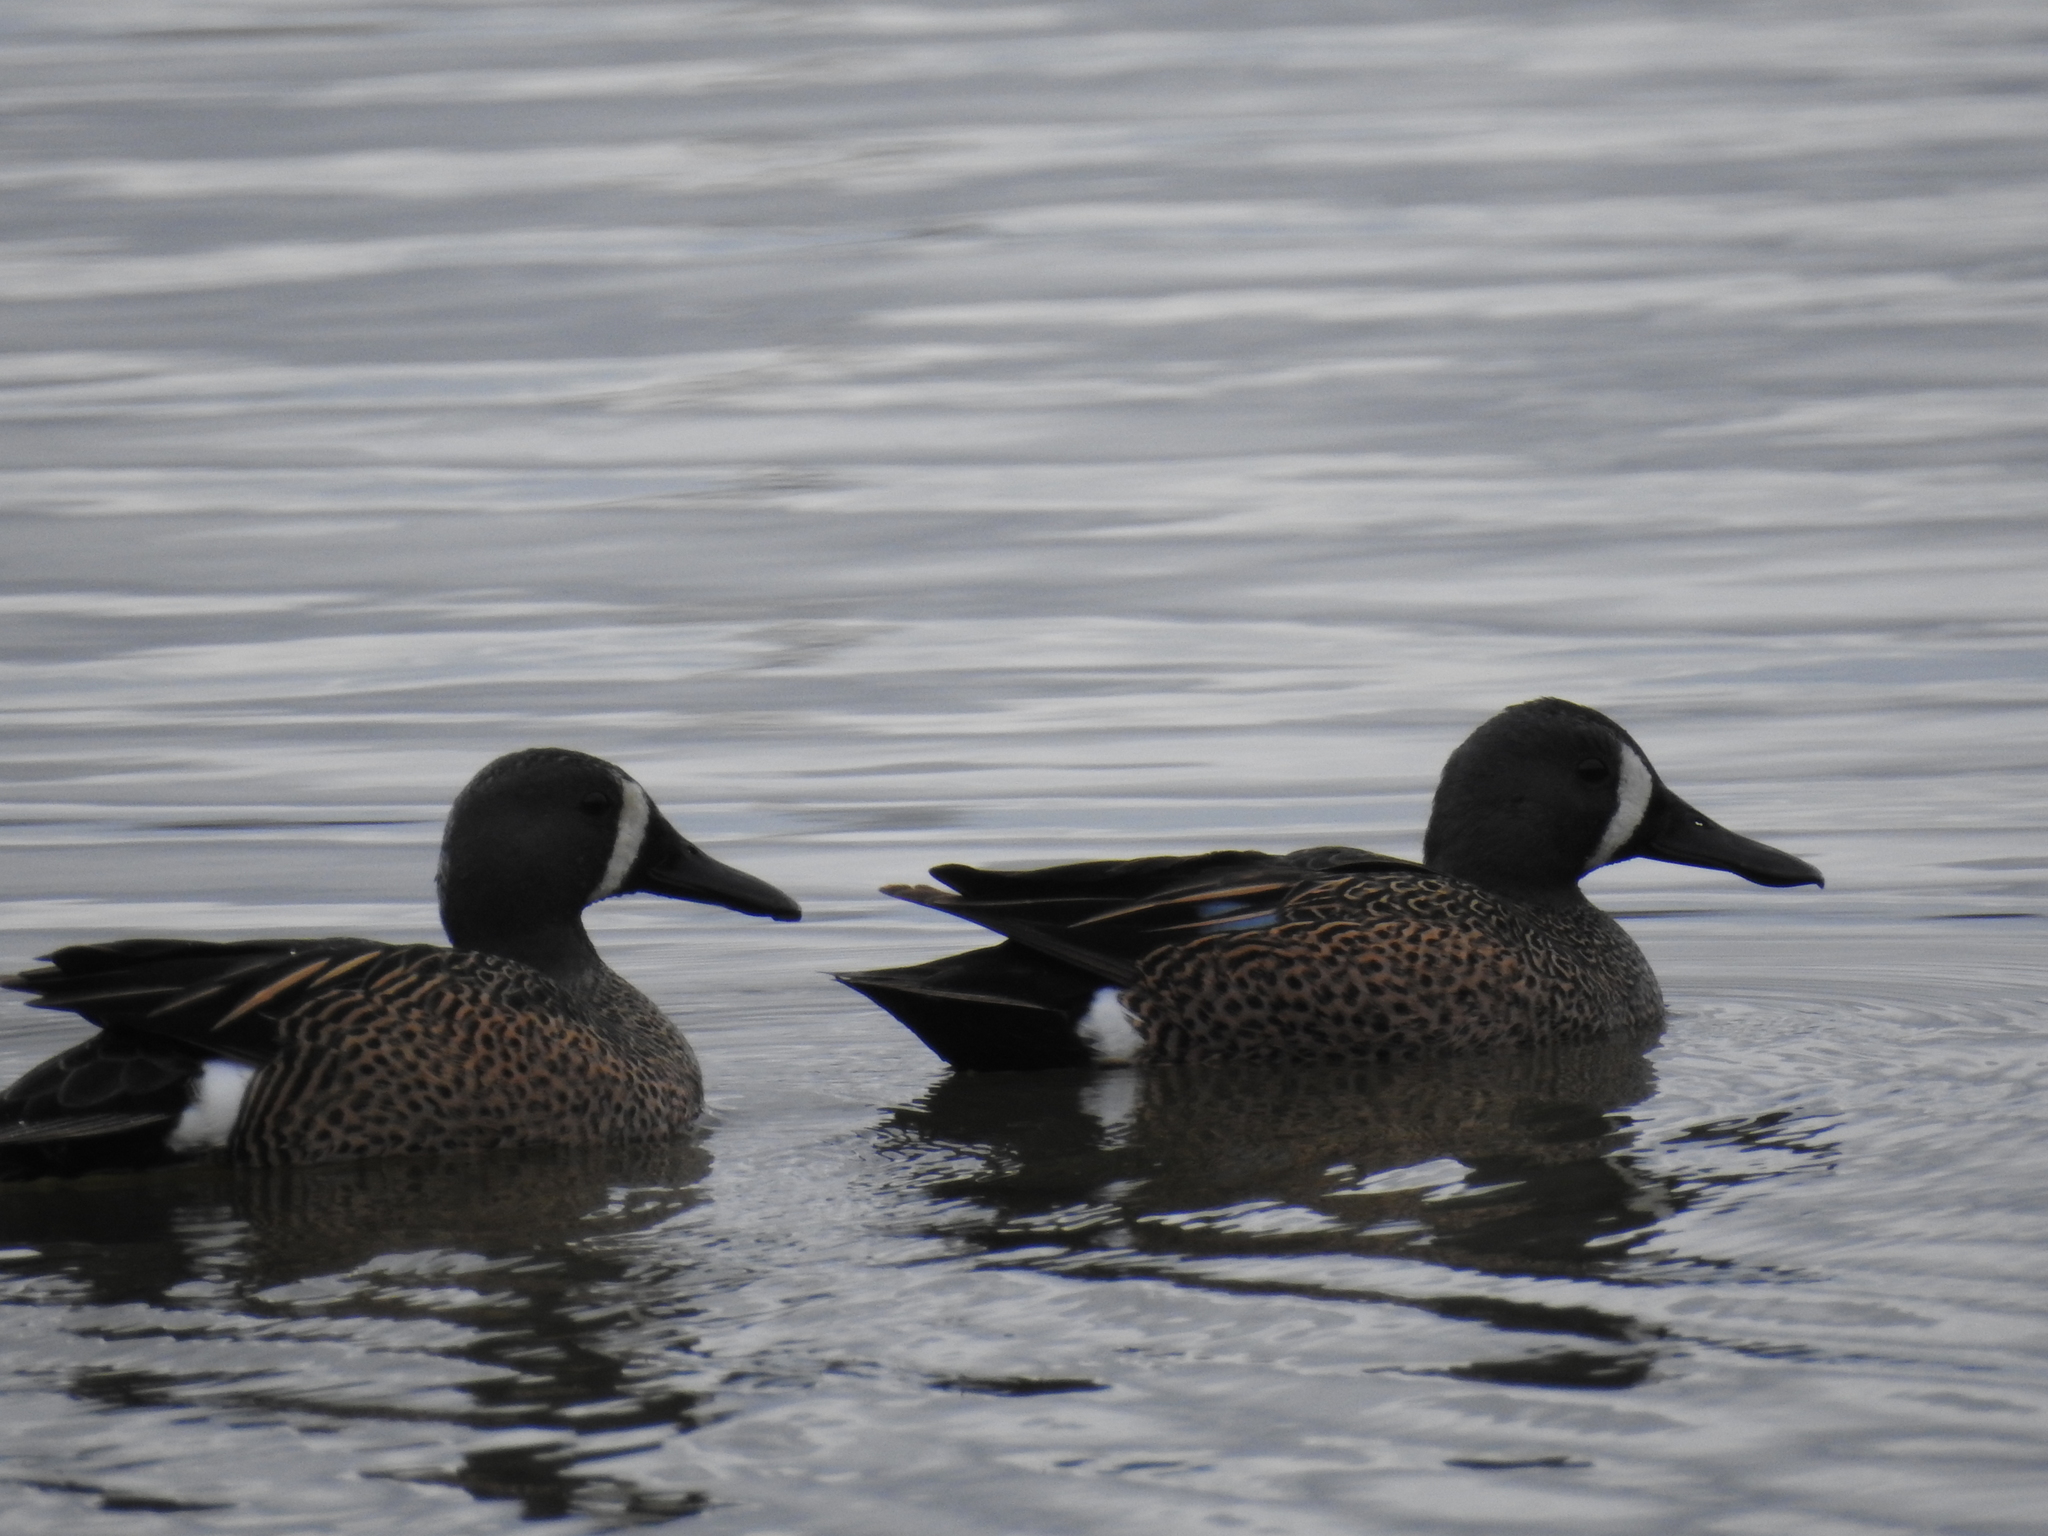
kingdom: Animalia
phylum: Chordata
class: Aves
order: Anseriformes
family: Anatidae
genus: Spatula
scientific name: Spatula discors
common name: Blue-winged teal
